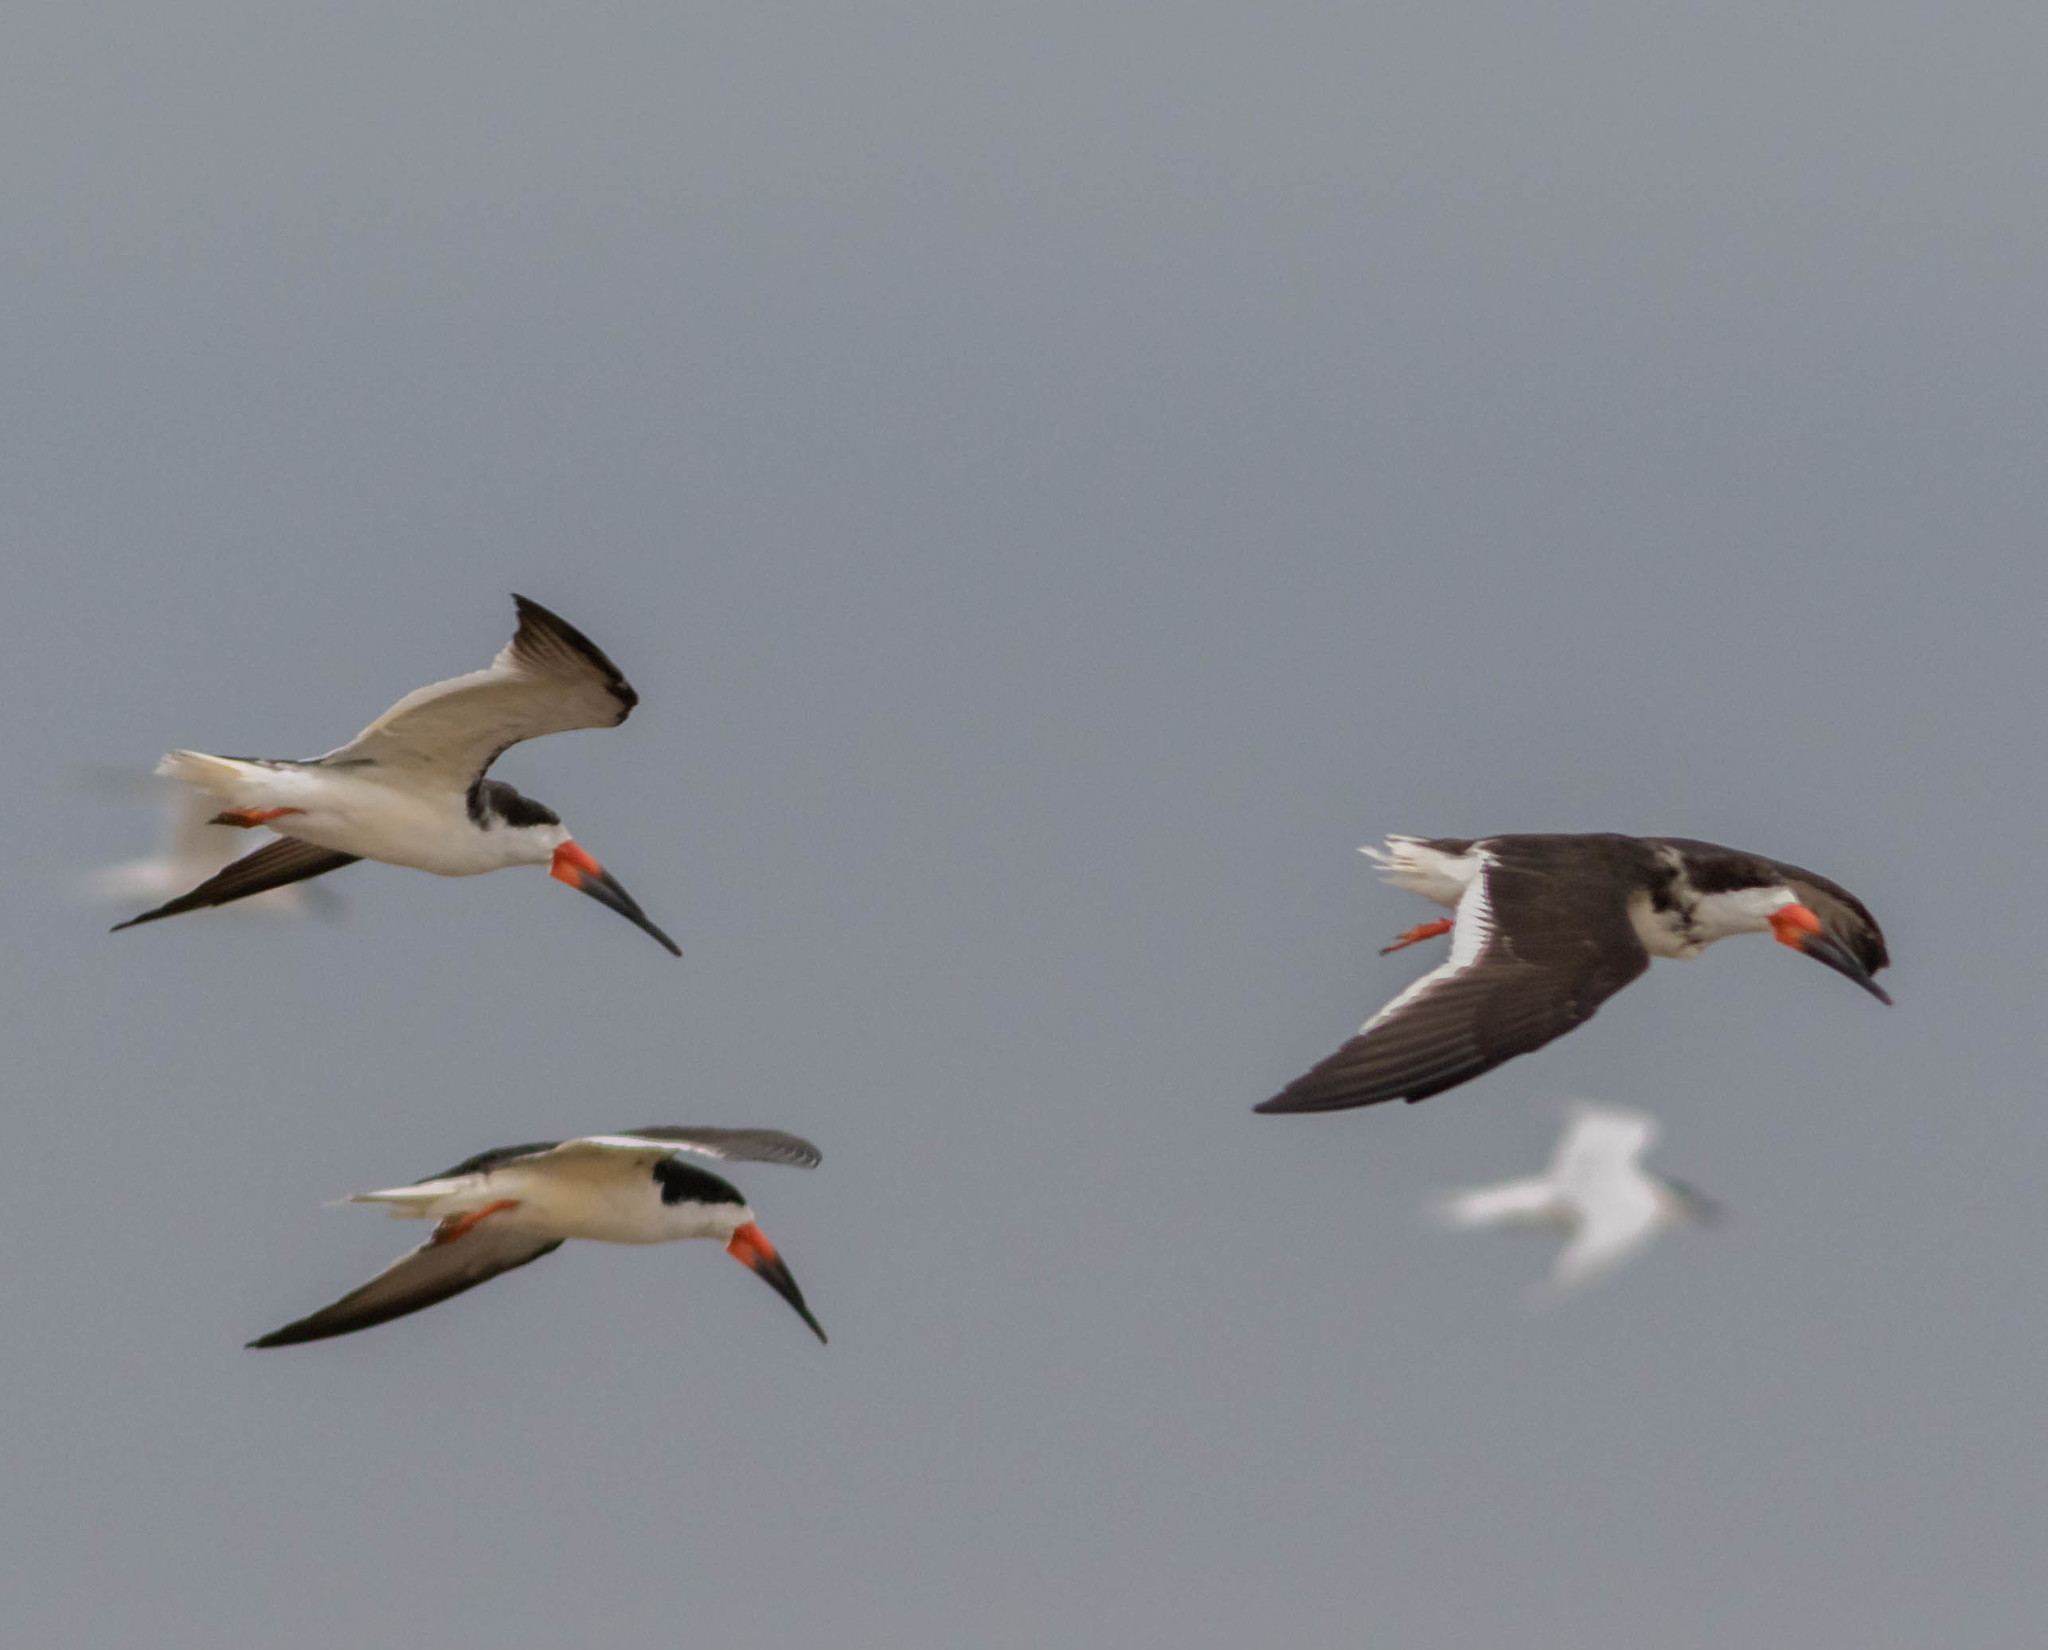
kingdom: Animalia
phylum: Chordata
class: Aves
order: Charadriiformes
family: Laridae
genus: Rynchops
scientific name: Rynchops niger
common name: Black skimmer
